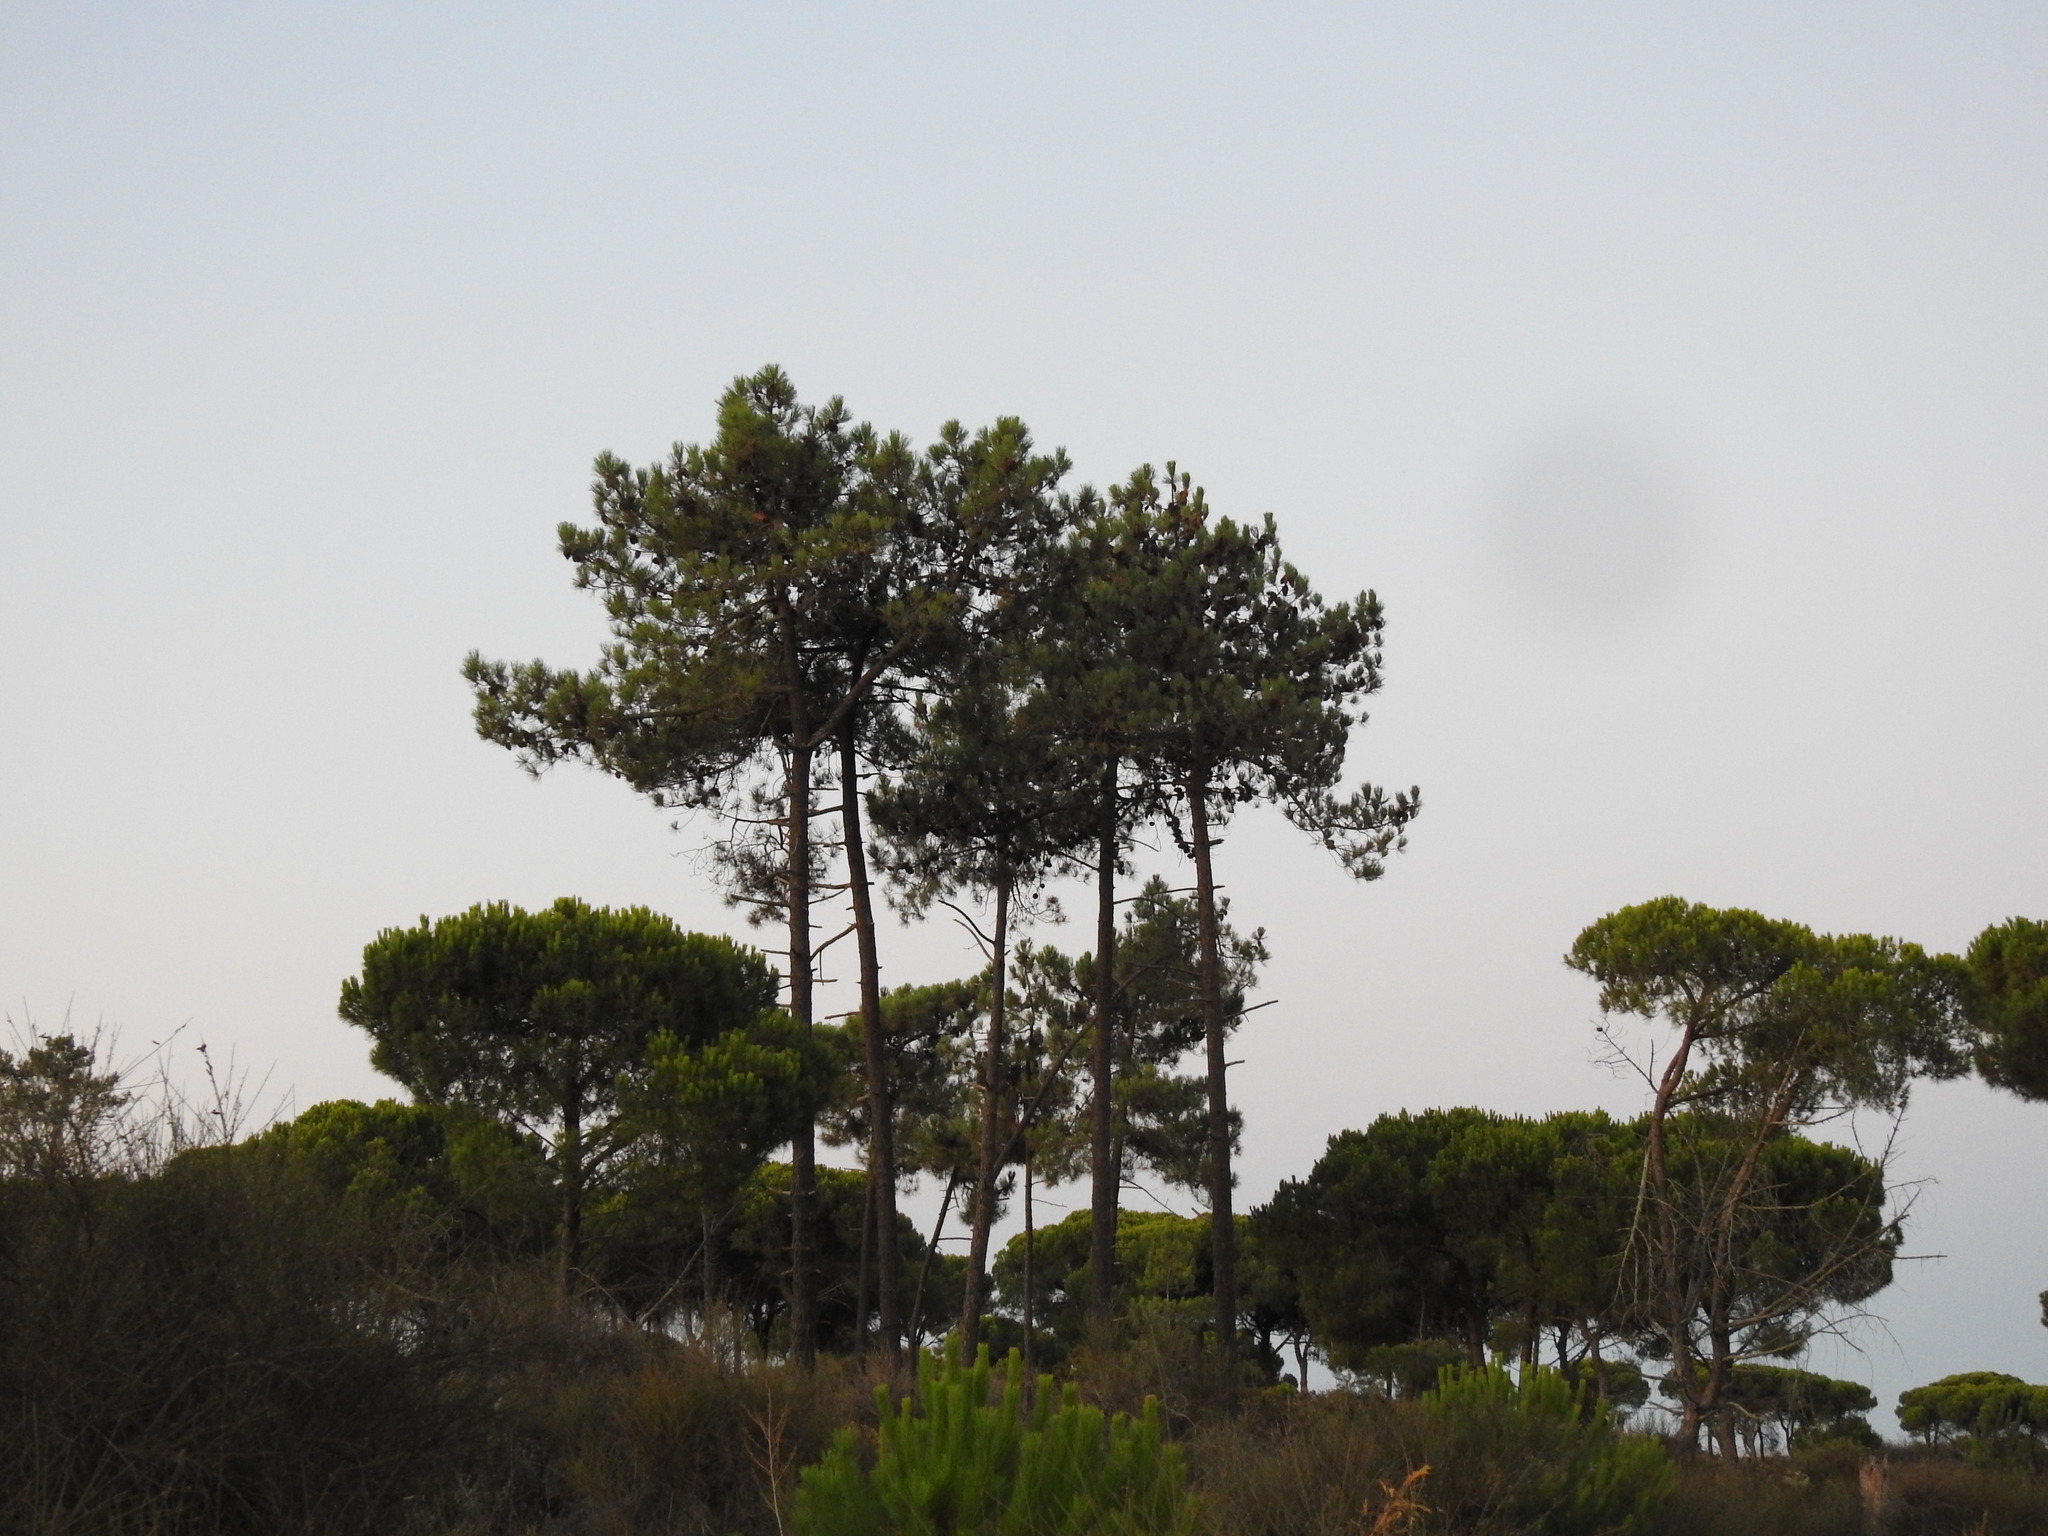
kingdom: Plantae
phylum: Tracheophyta
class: Pinopsida
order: Pinales
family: Pinaceae
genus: Pinus
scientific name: Pinus pinaster
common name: Maritime pine
